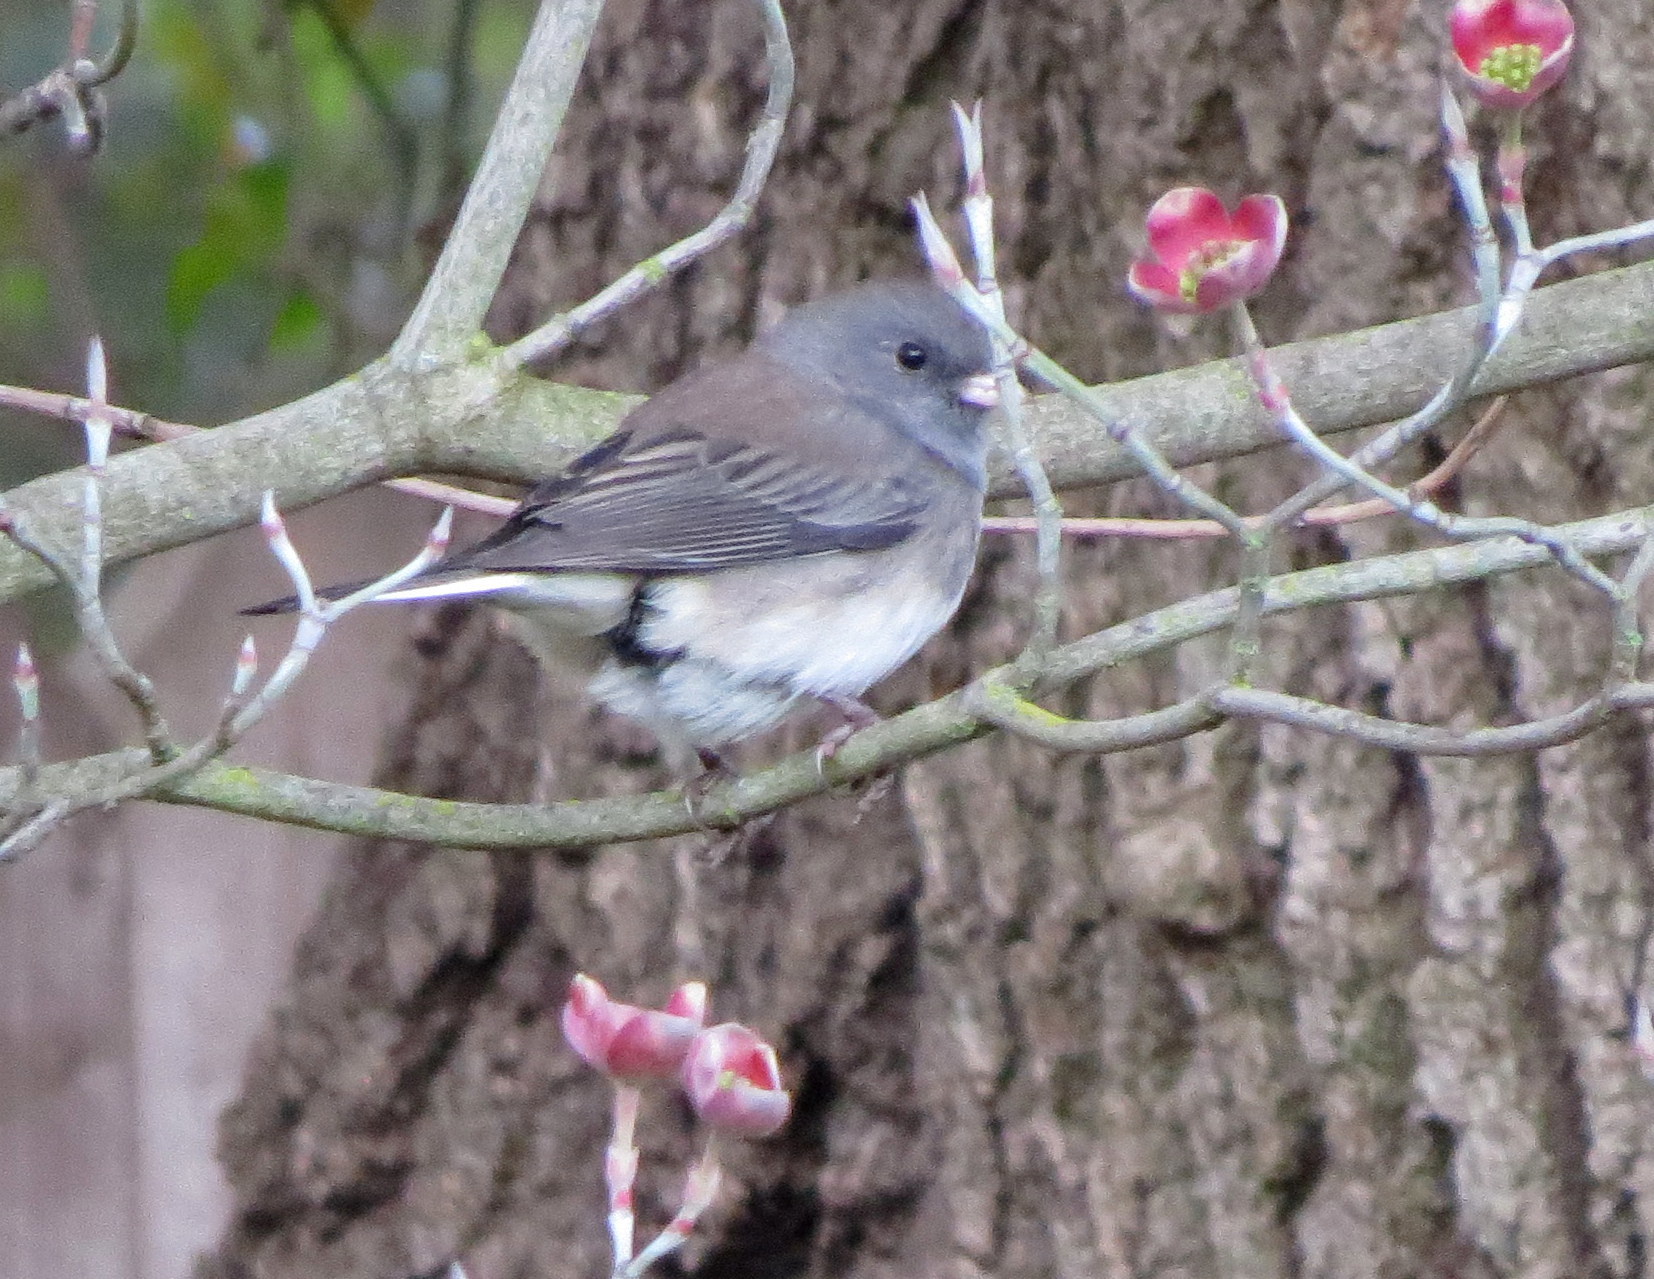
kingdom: Animalia
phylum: Chordata
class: Aves
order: Passeriformes
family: Passerellidae
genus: Junco
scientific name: Junco hyemalis
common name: Dark-eyed junco
